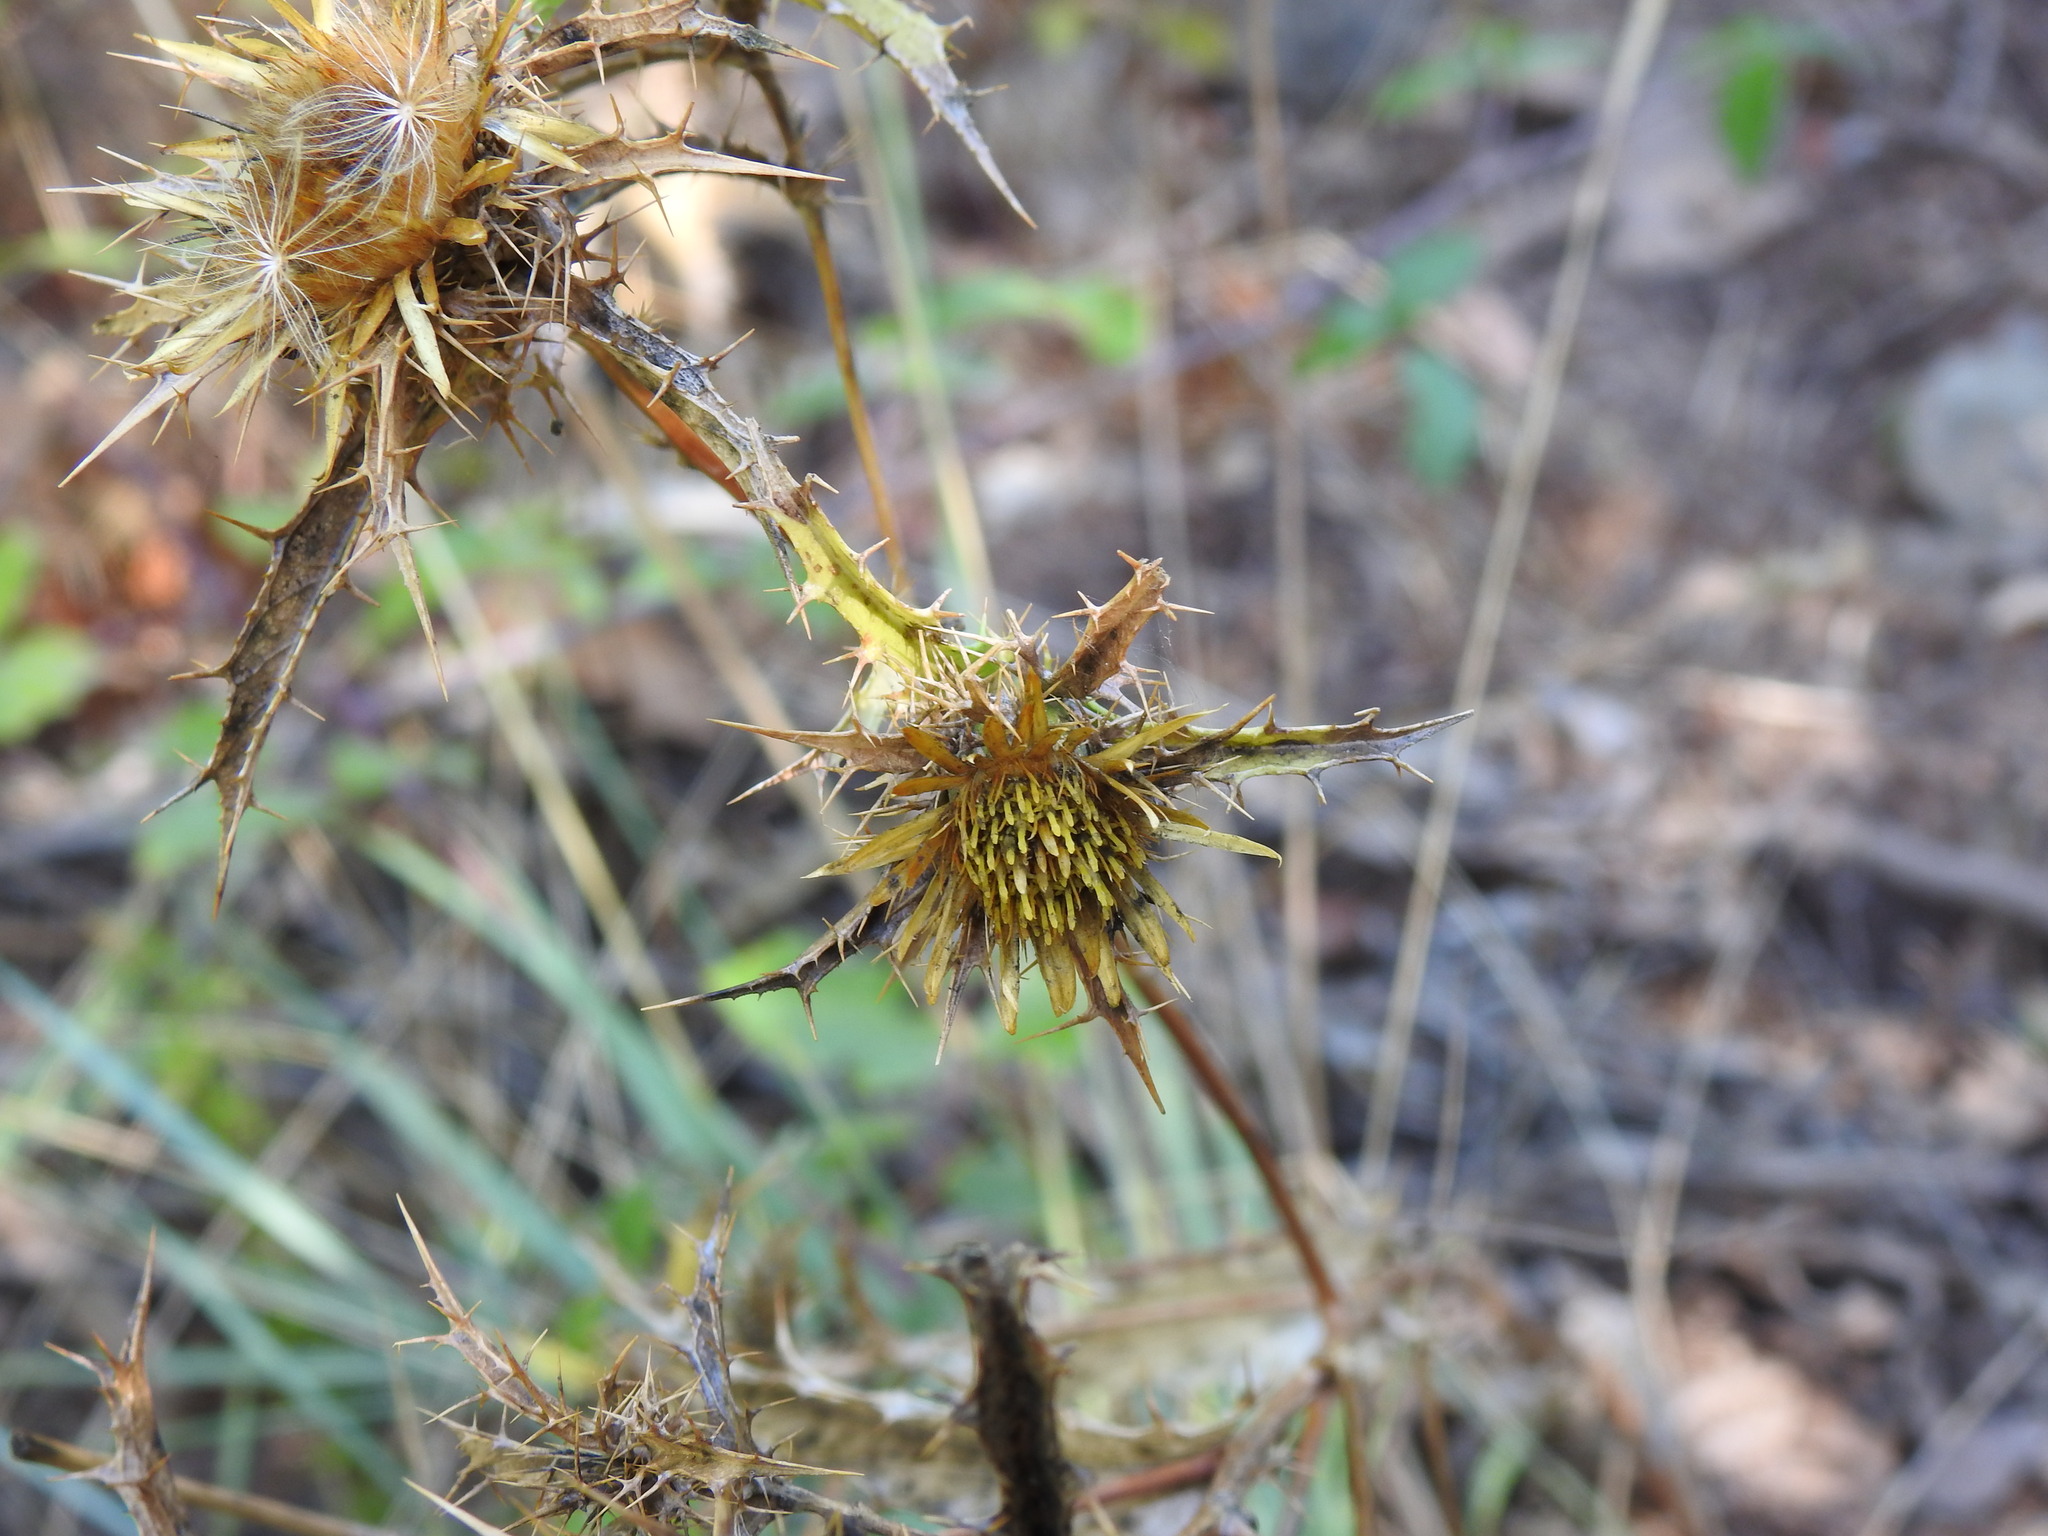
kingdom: Plantae
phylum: Tracheophyta
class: Magnoliopsida
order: Asterales
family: Asteraceae
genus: Carlina
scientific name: Carlina hispanica
